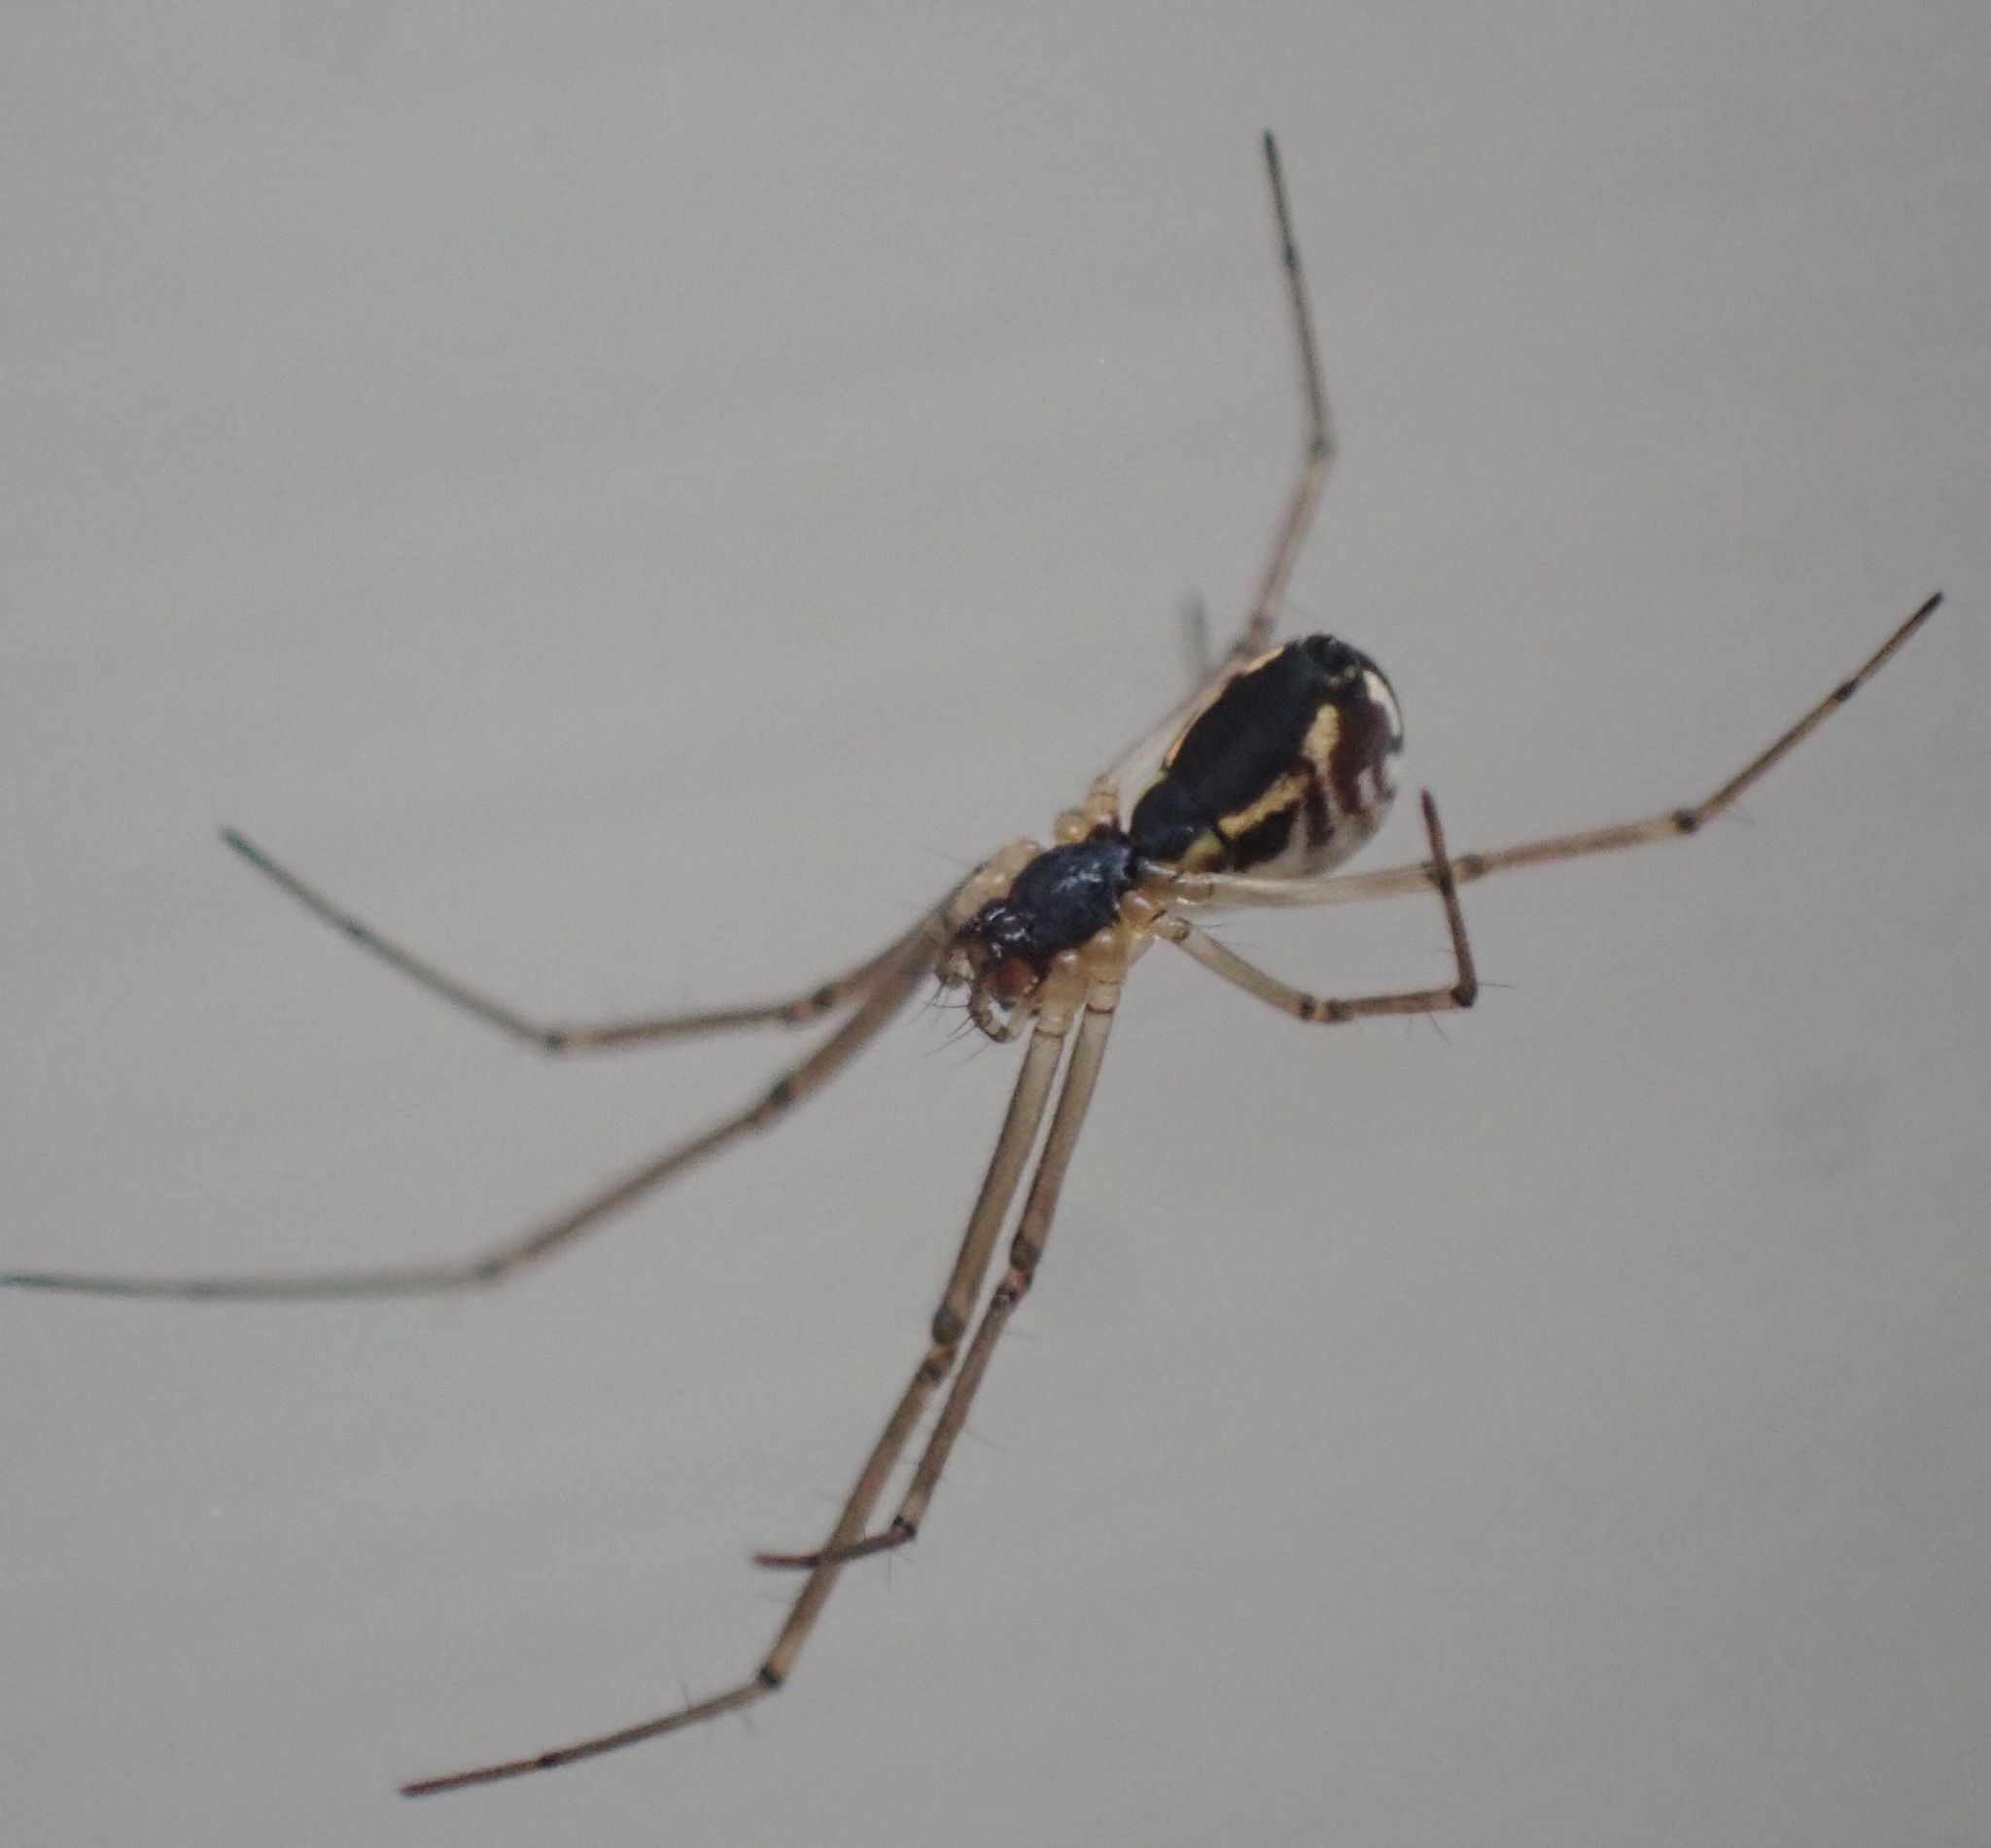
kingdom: Animalia
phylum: Arthropoda
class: Arachnida
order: Araneae
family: Linyphiidae
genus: Neriene
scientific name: Neriene radiata
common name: Filmy dome spider
